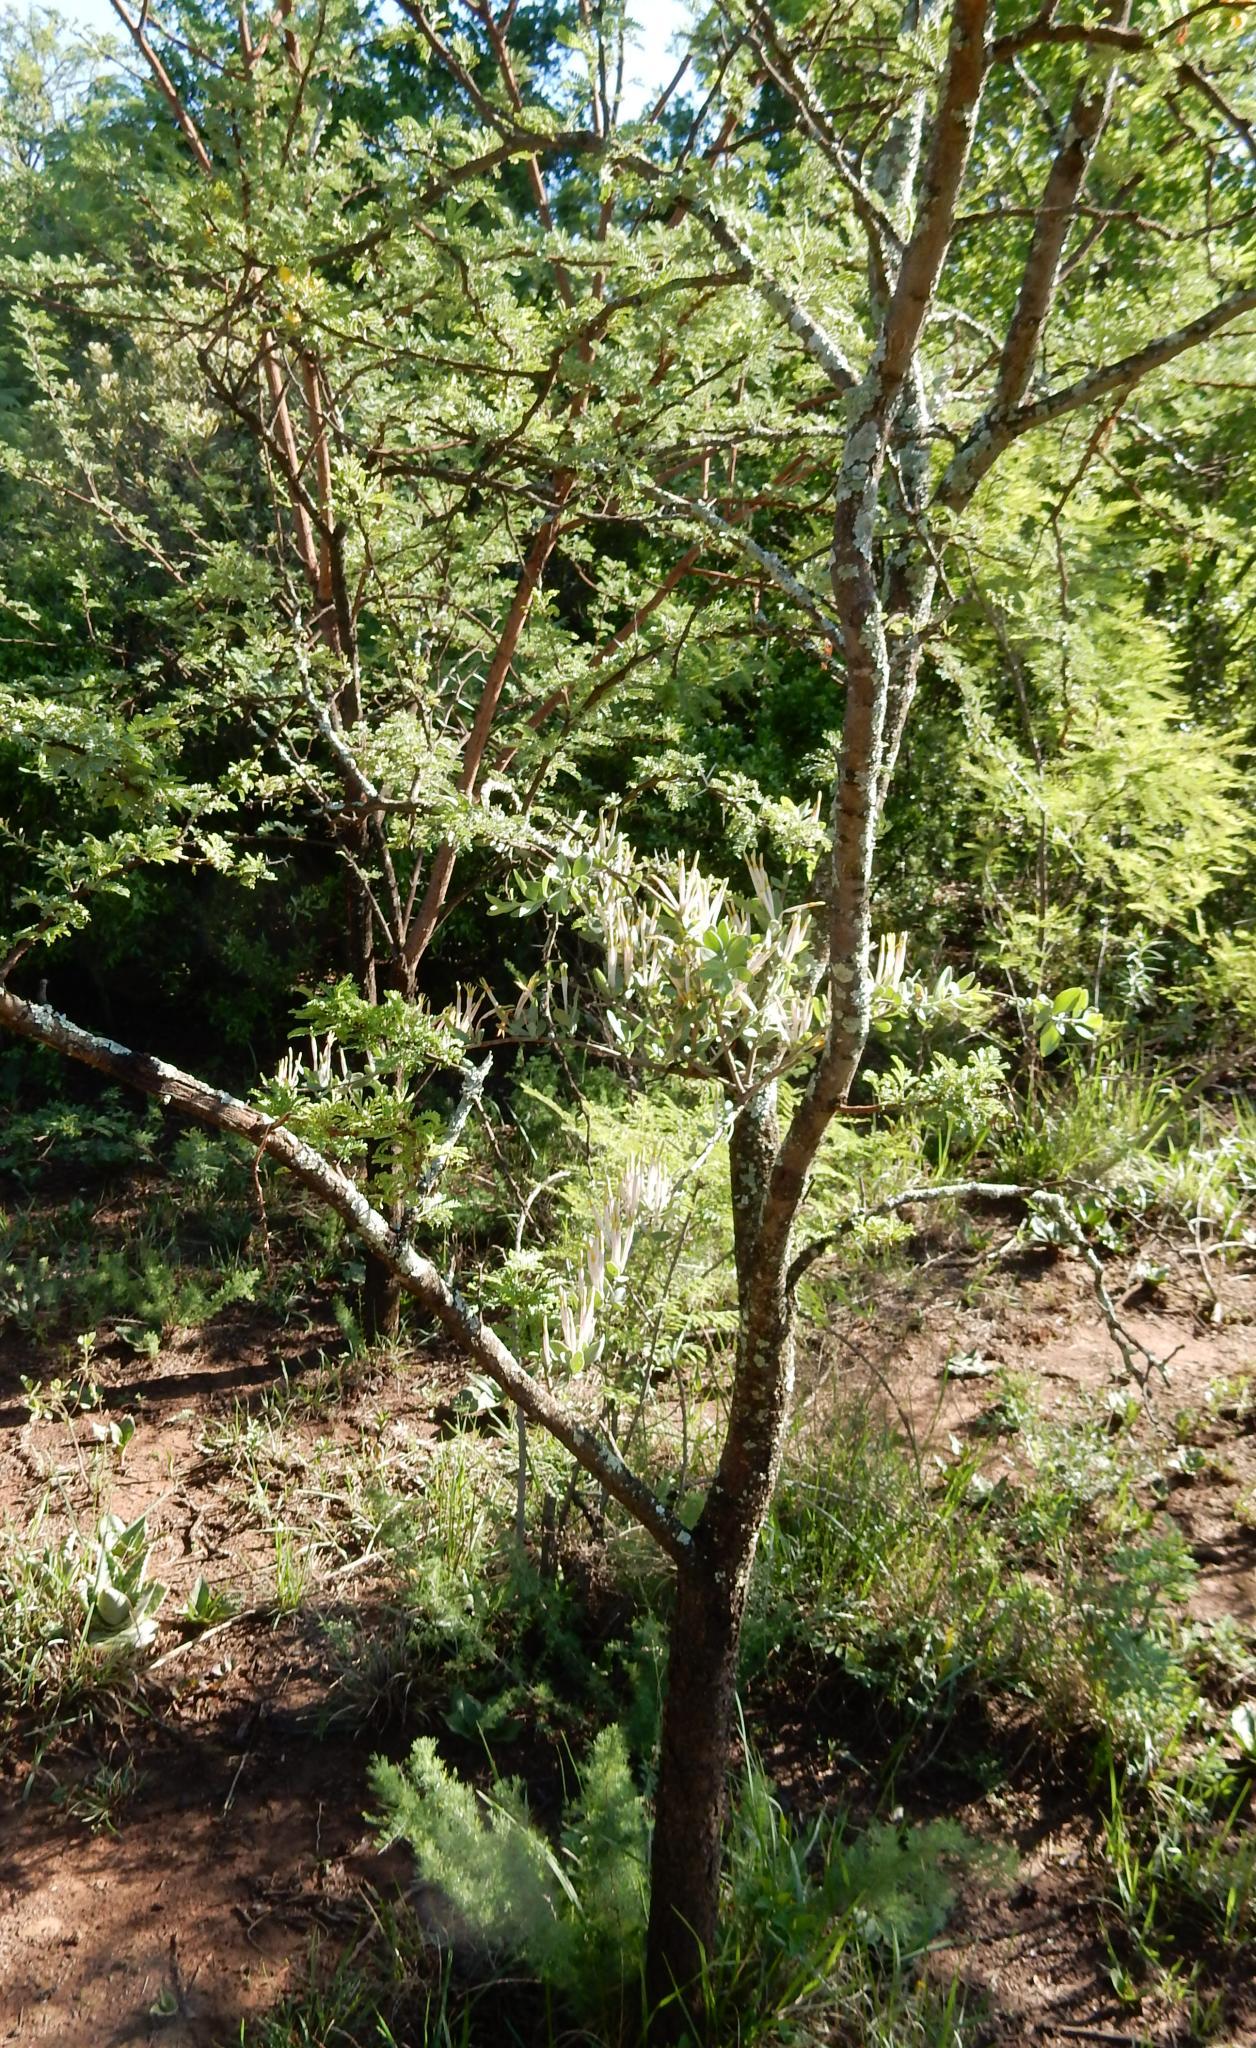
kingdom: Plantae
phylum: Tracheophyta
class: Magnoliopsida
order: Fabales
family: Fabaceae
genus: Vachellia
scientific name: Vachellia karroo
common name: Sweet thorn
